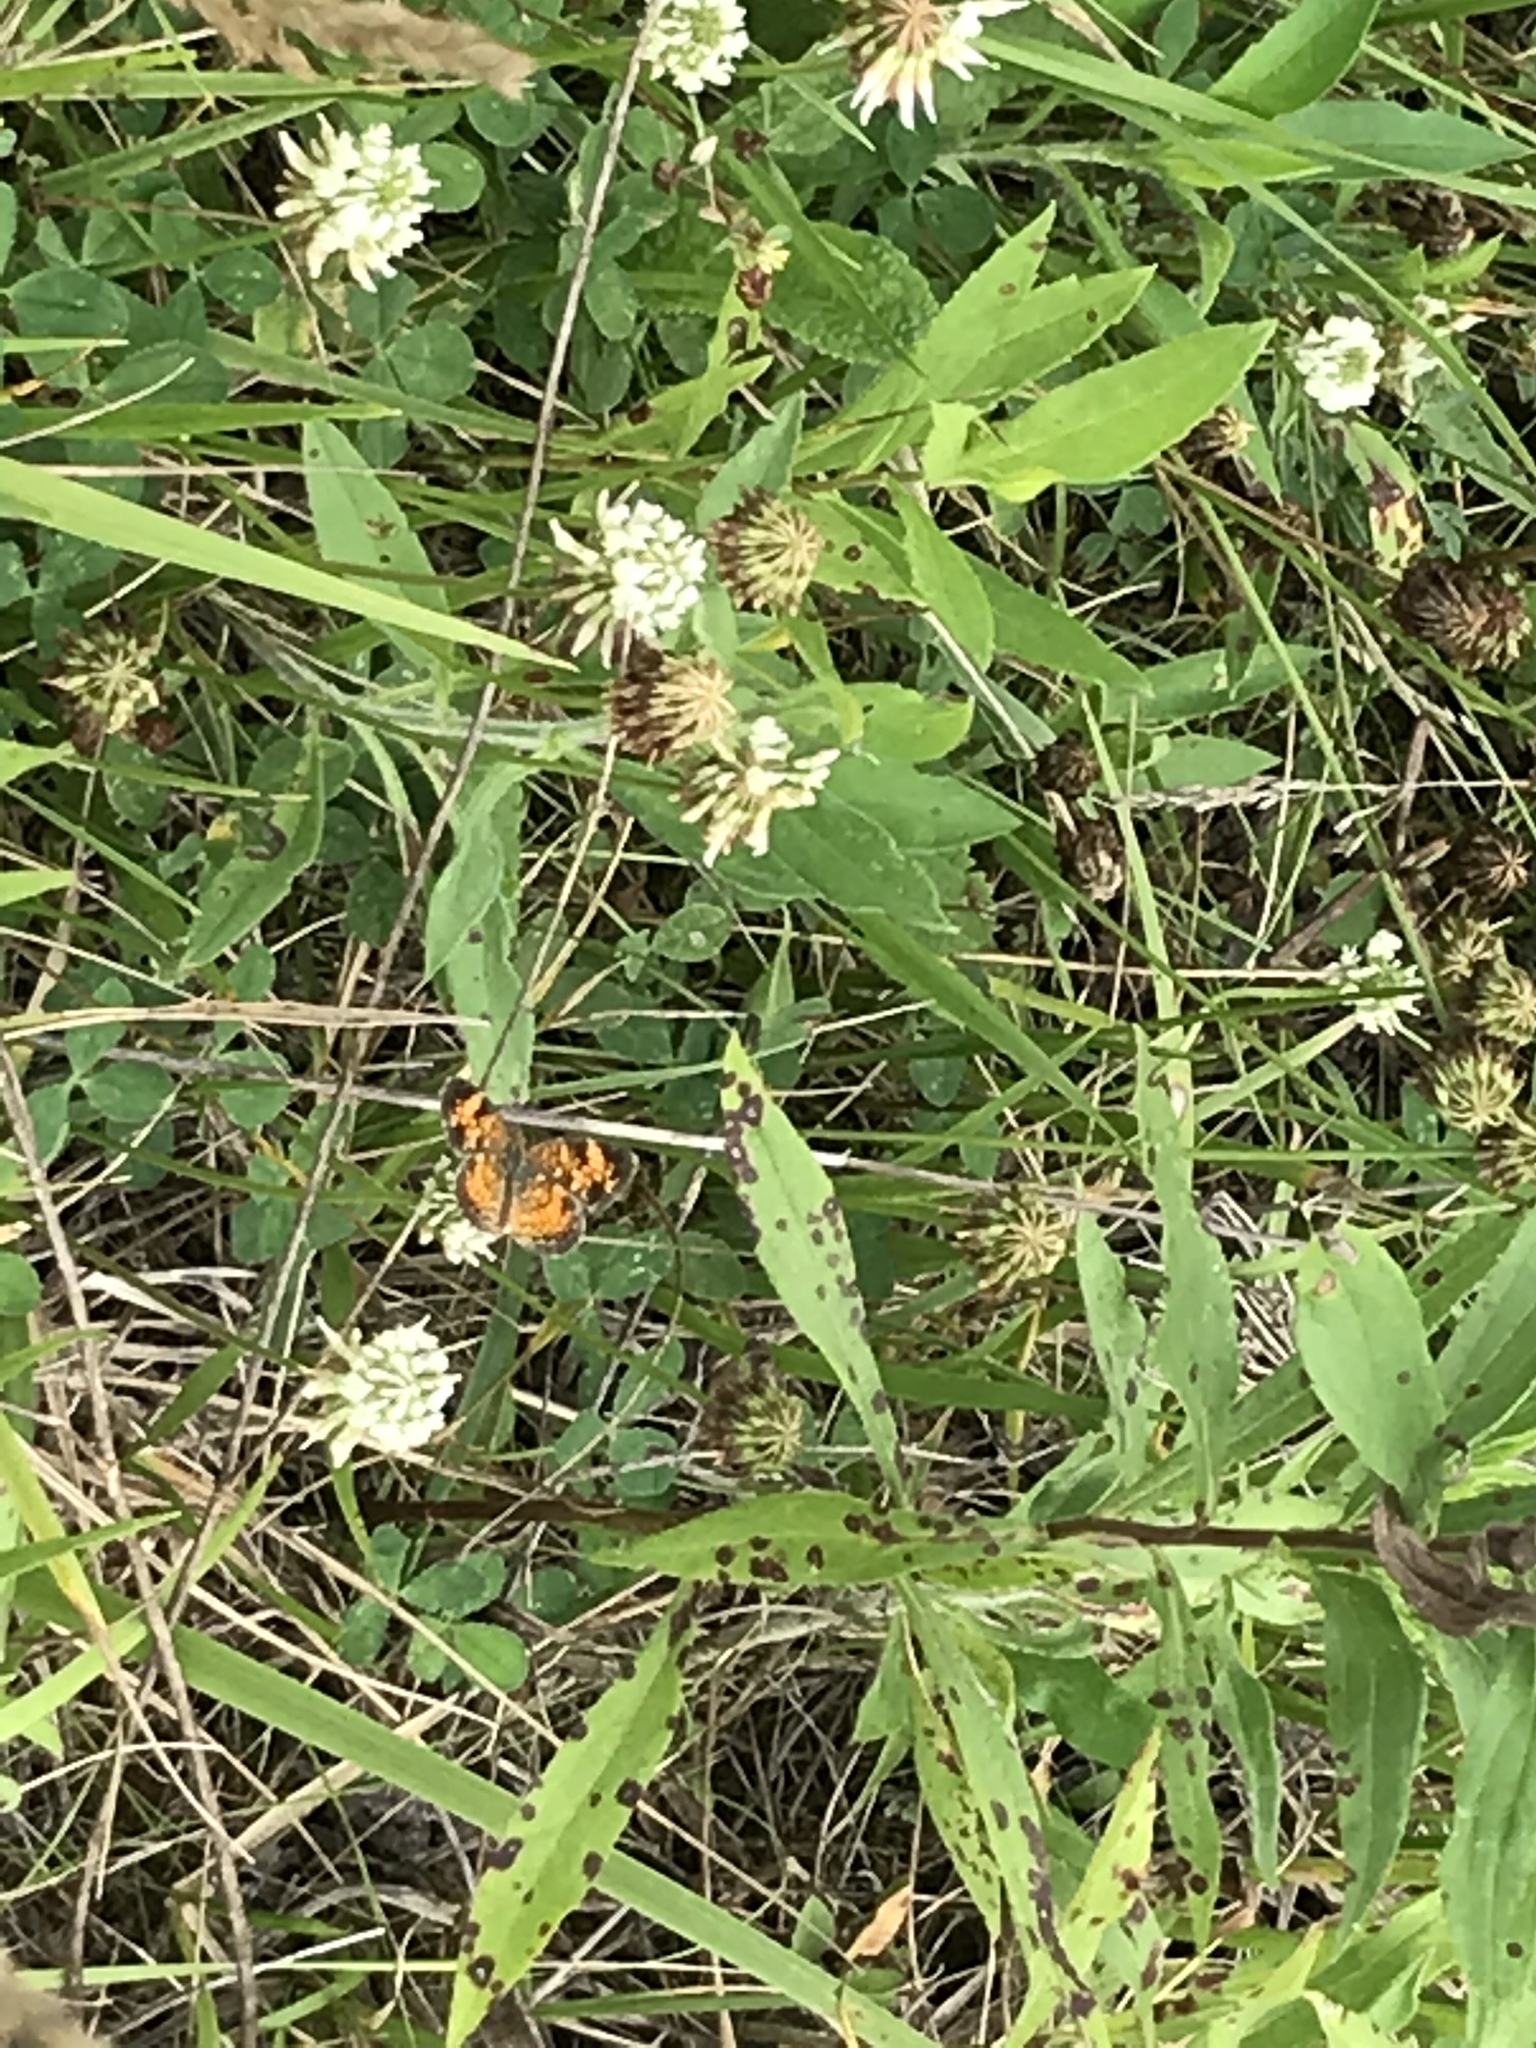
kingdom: Animalia
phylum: Arthropoda
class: Insecta
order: Lepidoptera
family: Nymphalidae
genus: Phyciodes
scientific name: Phyciodes tharos
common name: Pearl crescent
